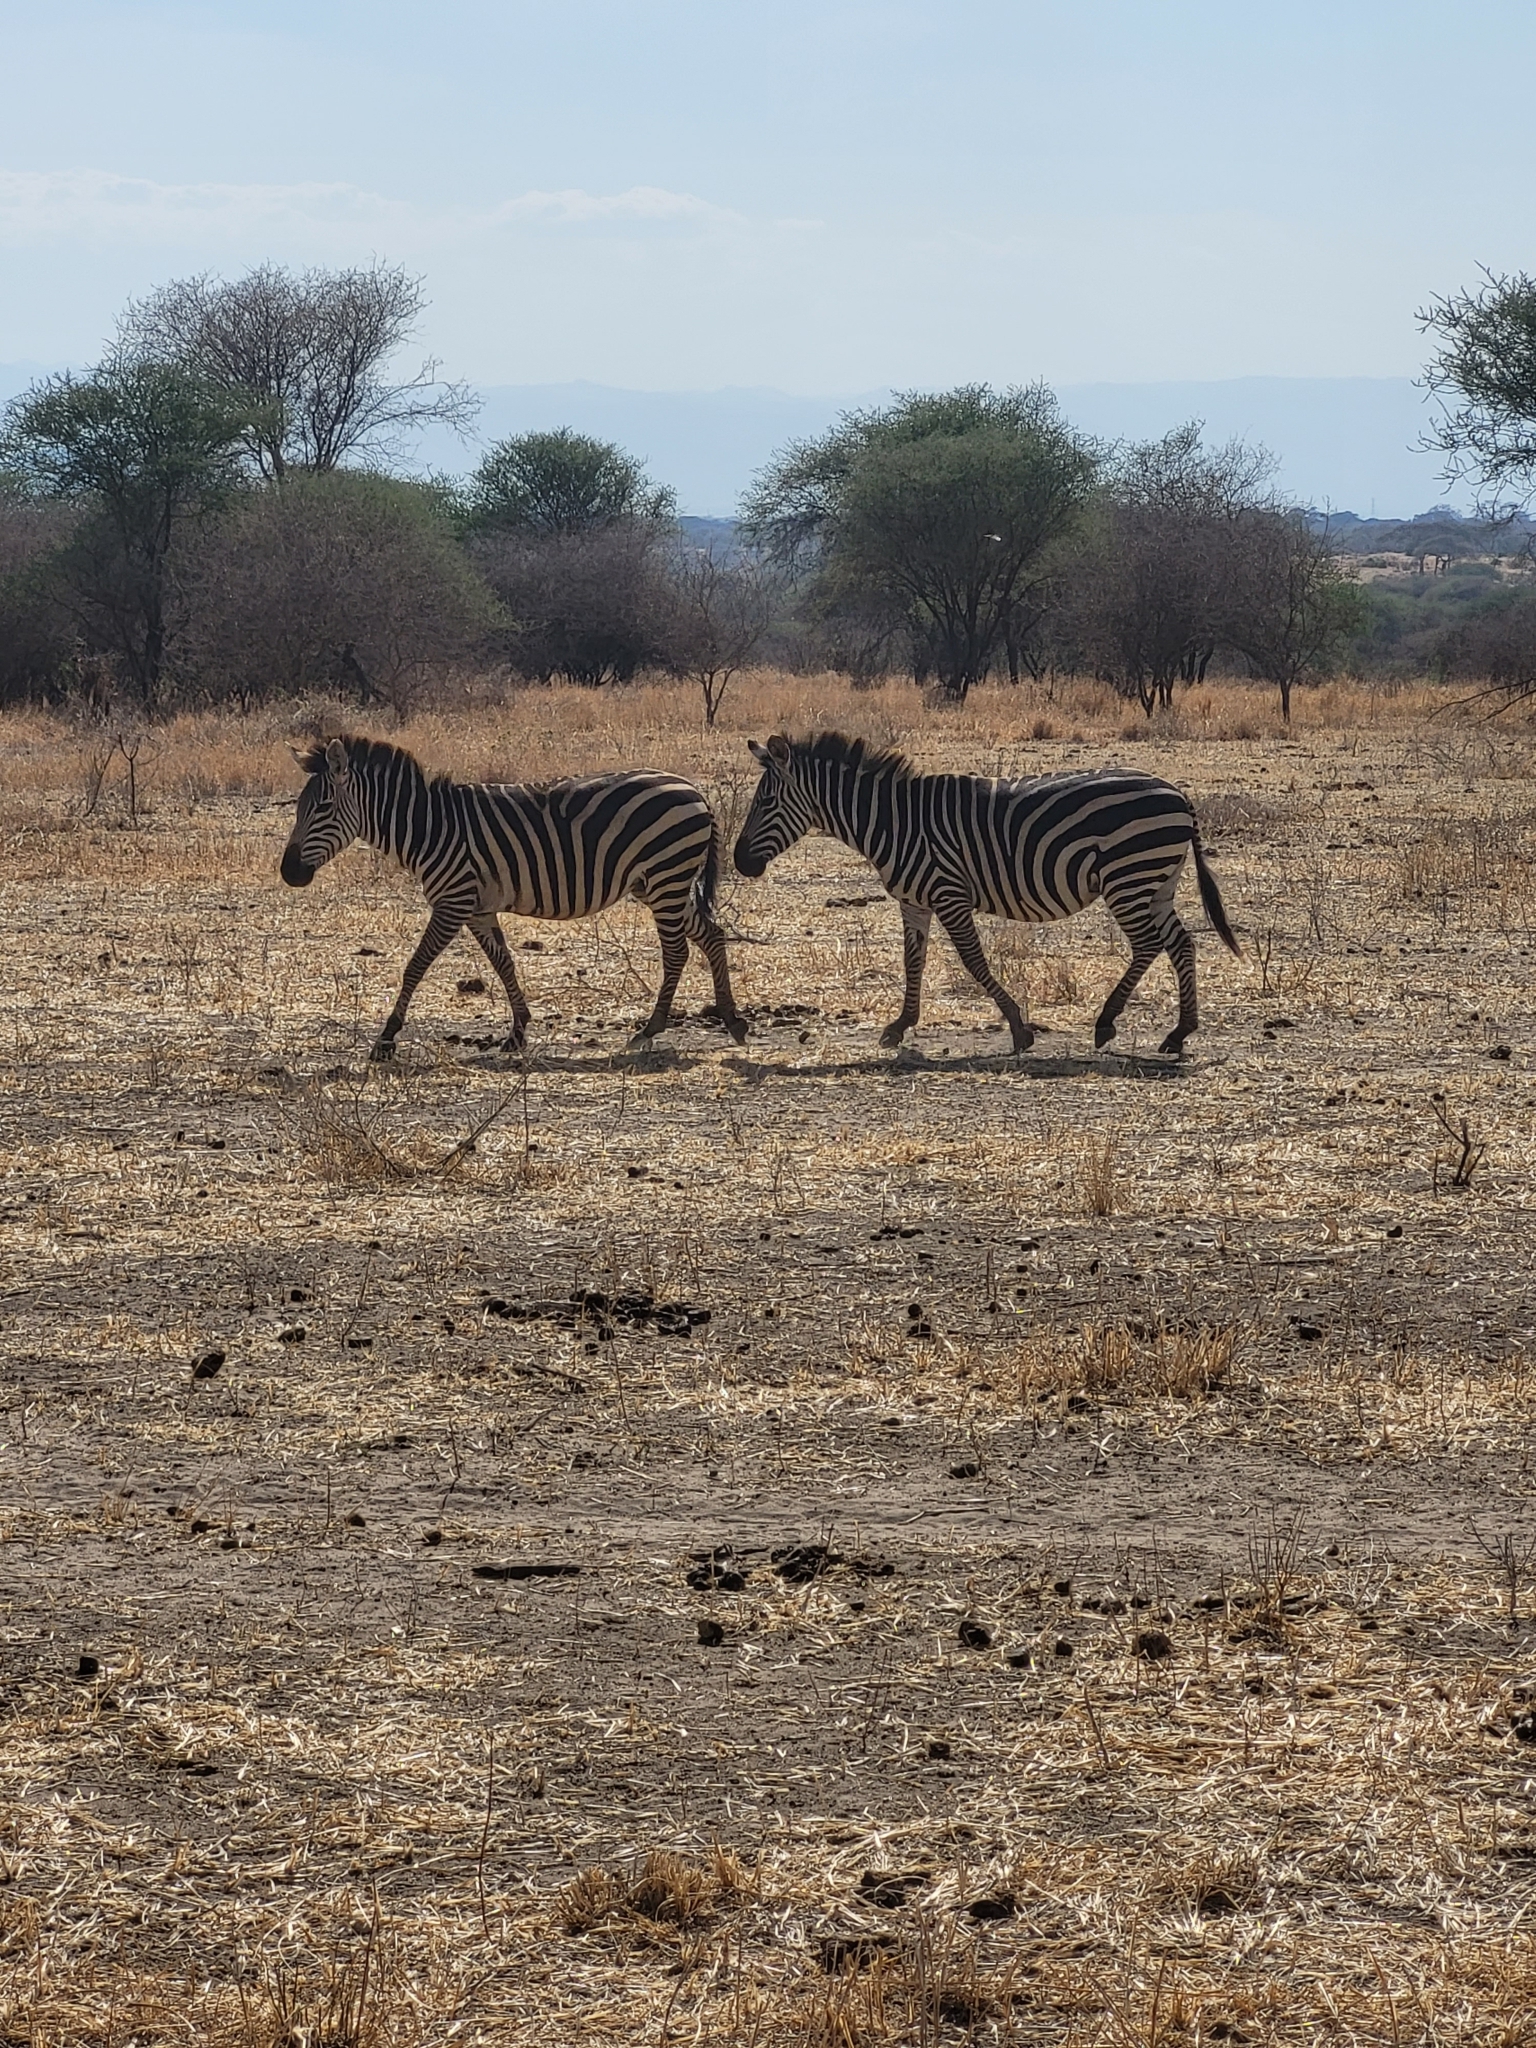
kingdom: Animalia
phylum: Chordata
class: Mammalia
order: Perissodactyla
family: Equidae
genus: Equus
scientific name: Equus quagga
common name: Plains zebra
